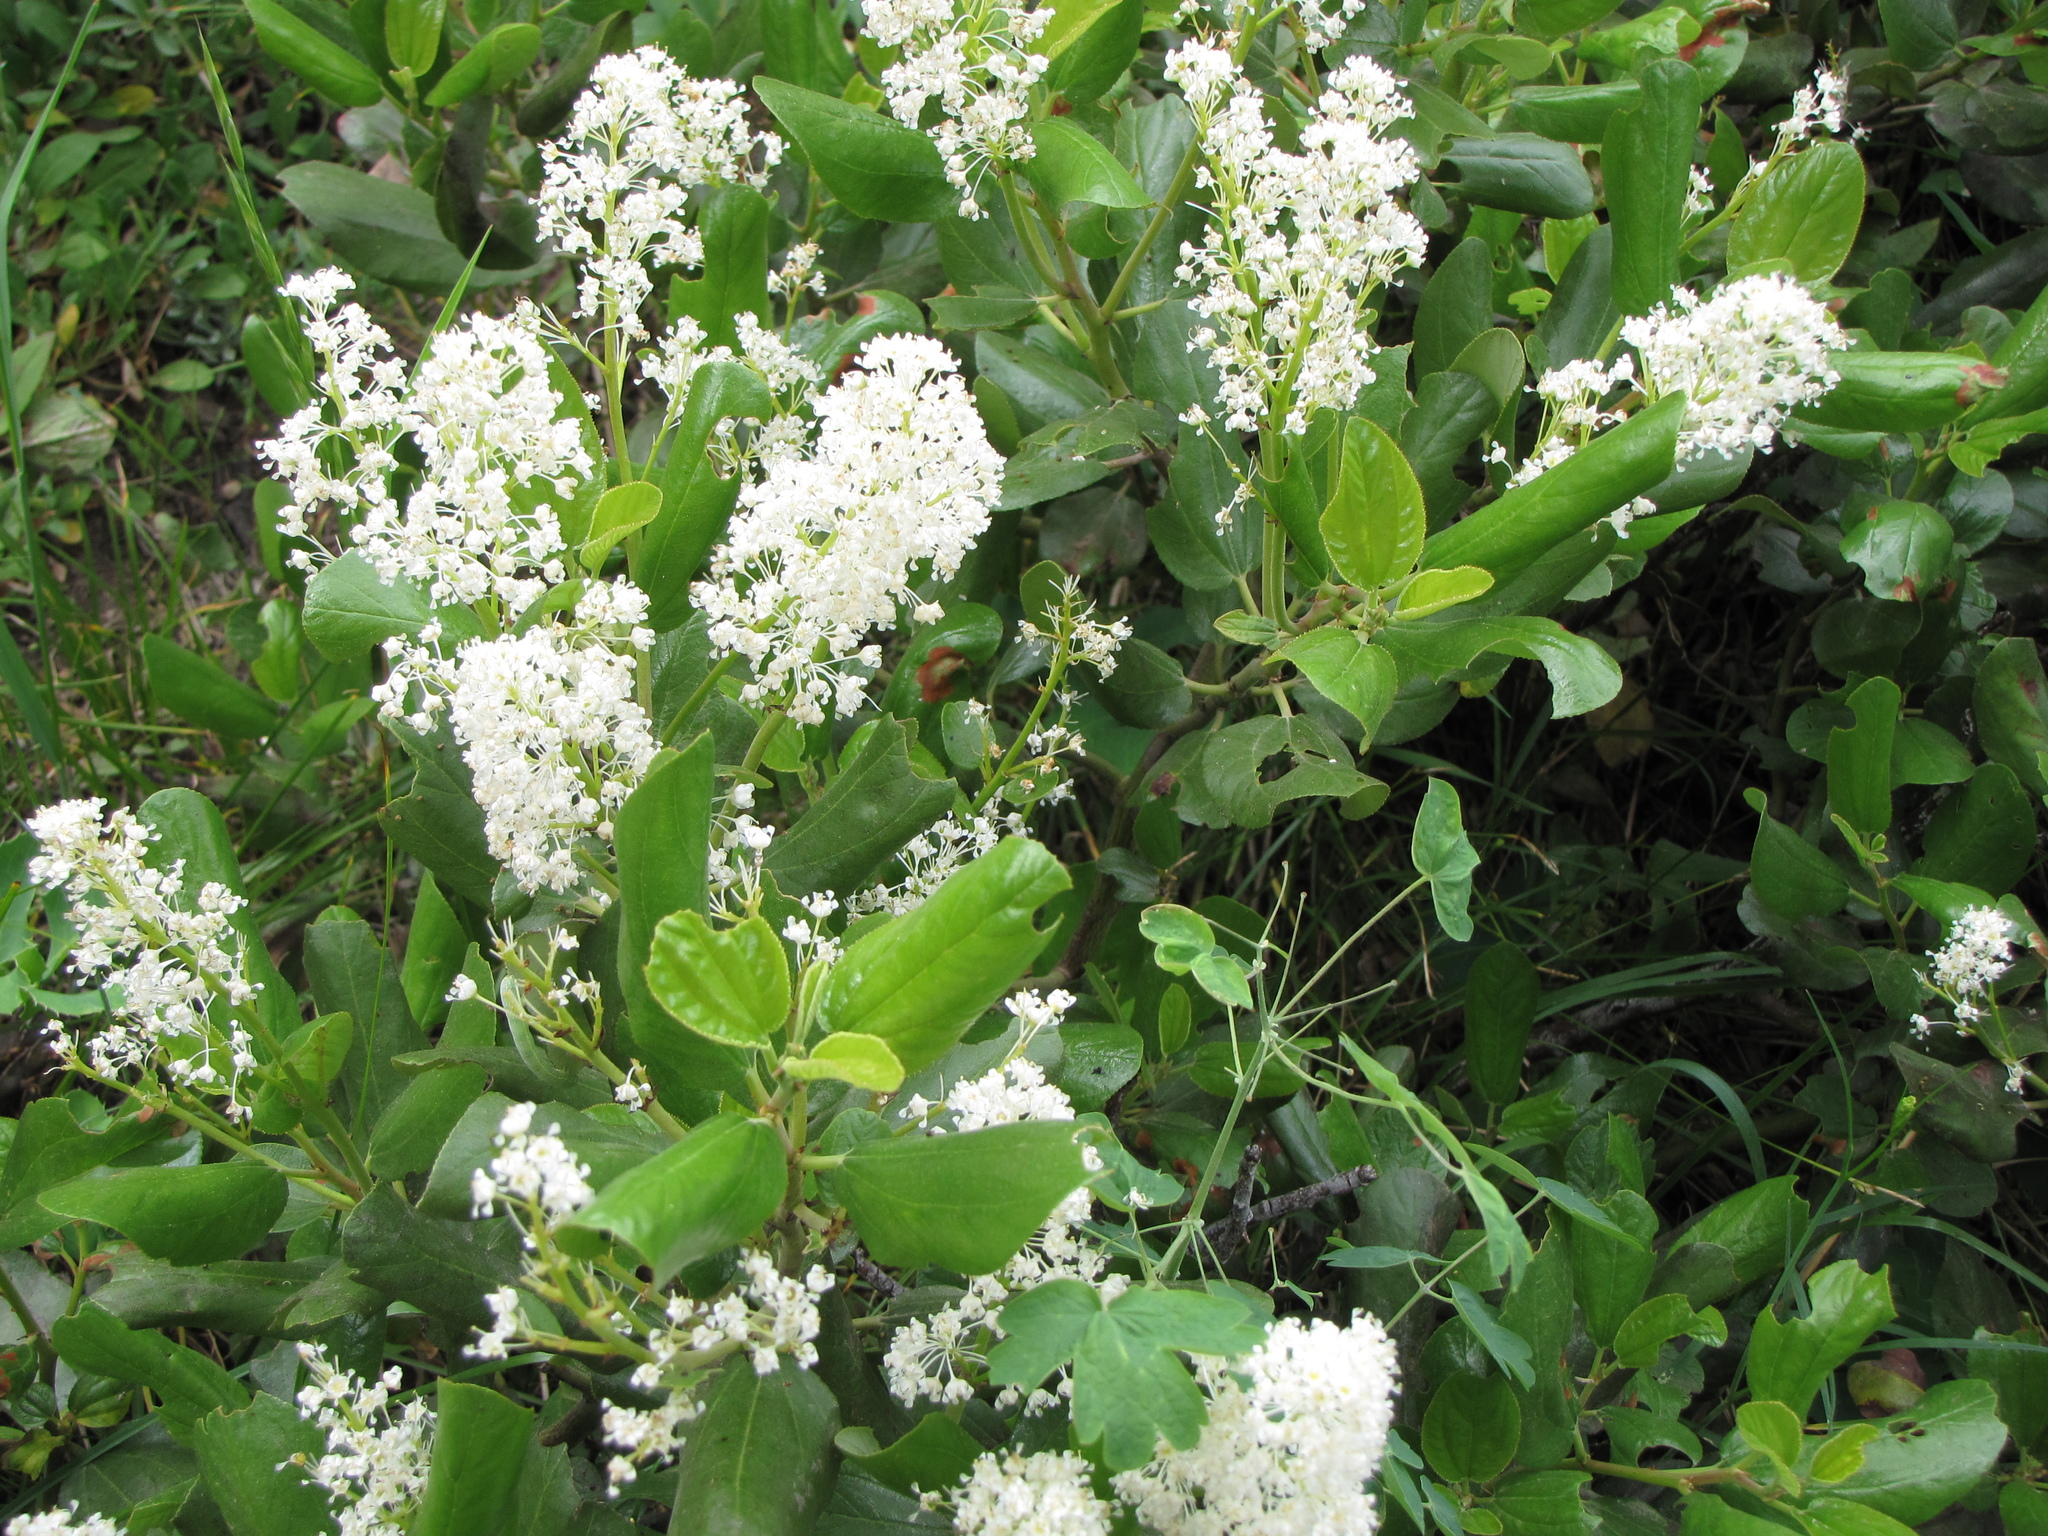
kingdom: Plantae
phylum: Tracheophyta
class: Magnoliopsida
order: Rosales
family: Rhamnaceae
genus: Ceanothus
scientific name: Ceanothus velutinus
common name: Snowbrush
